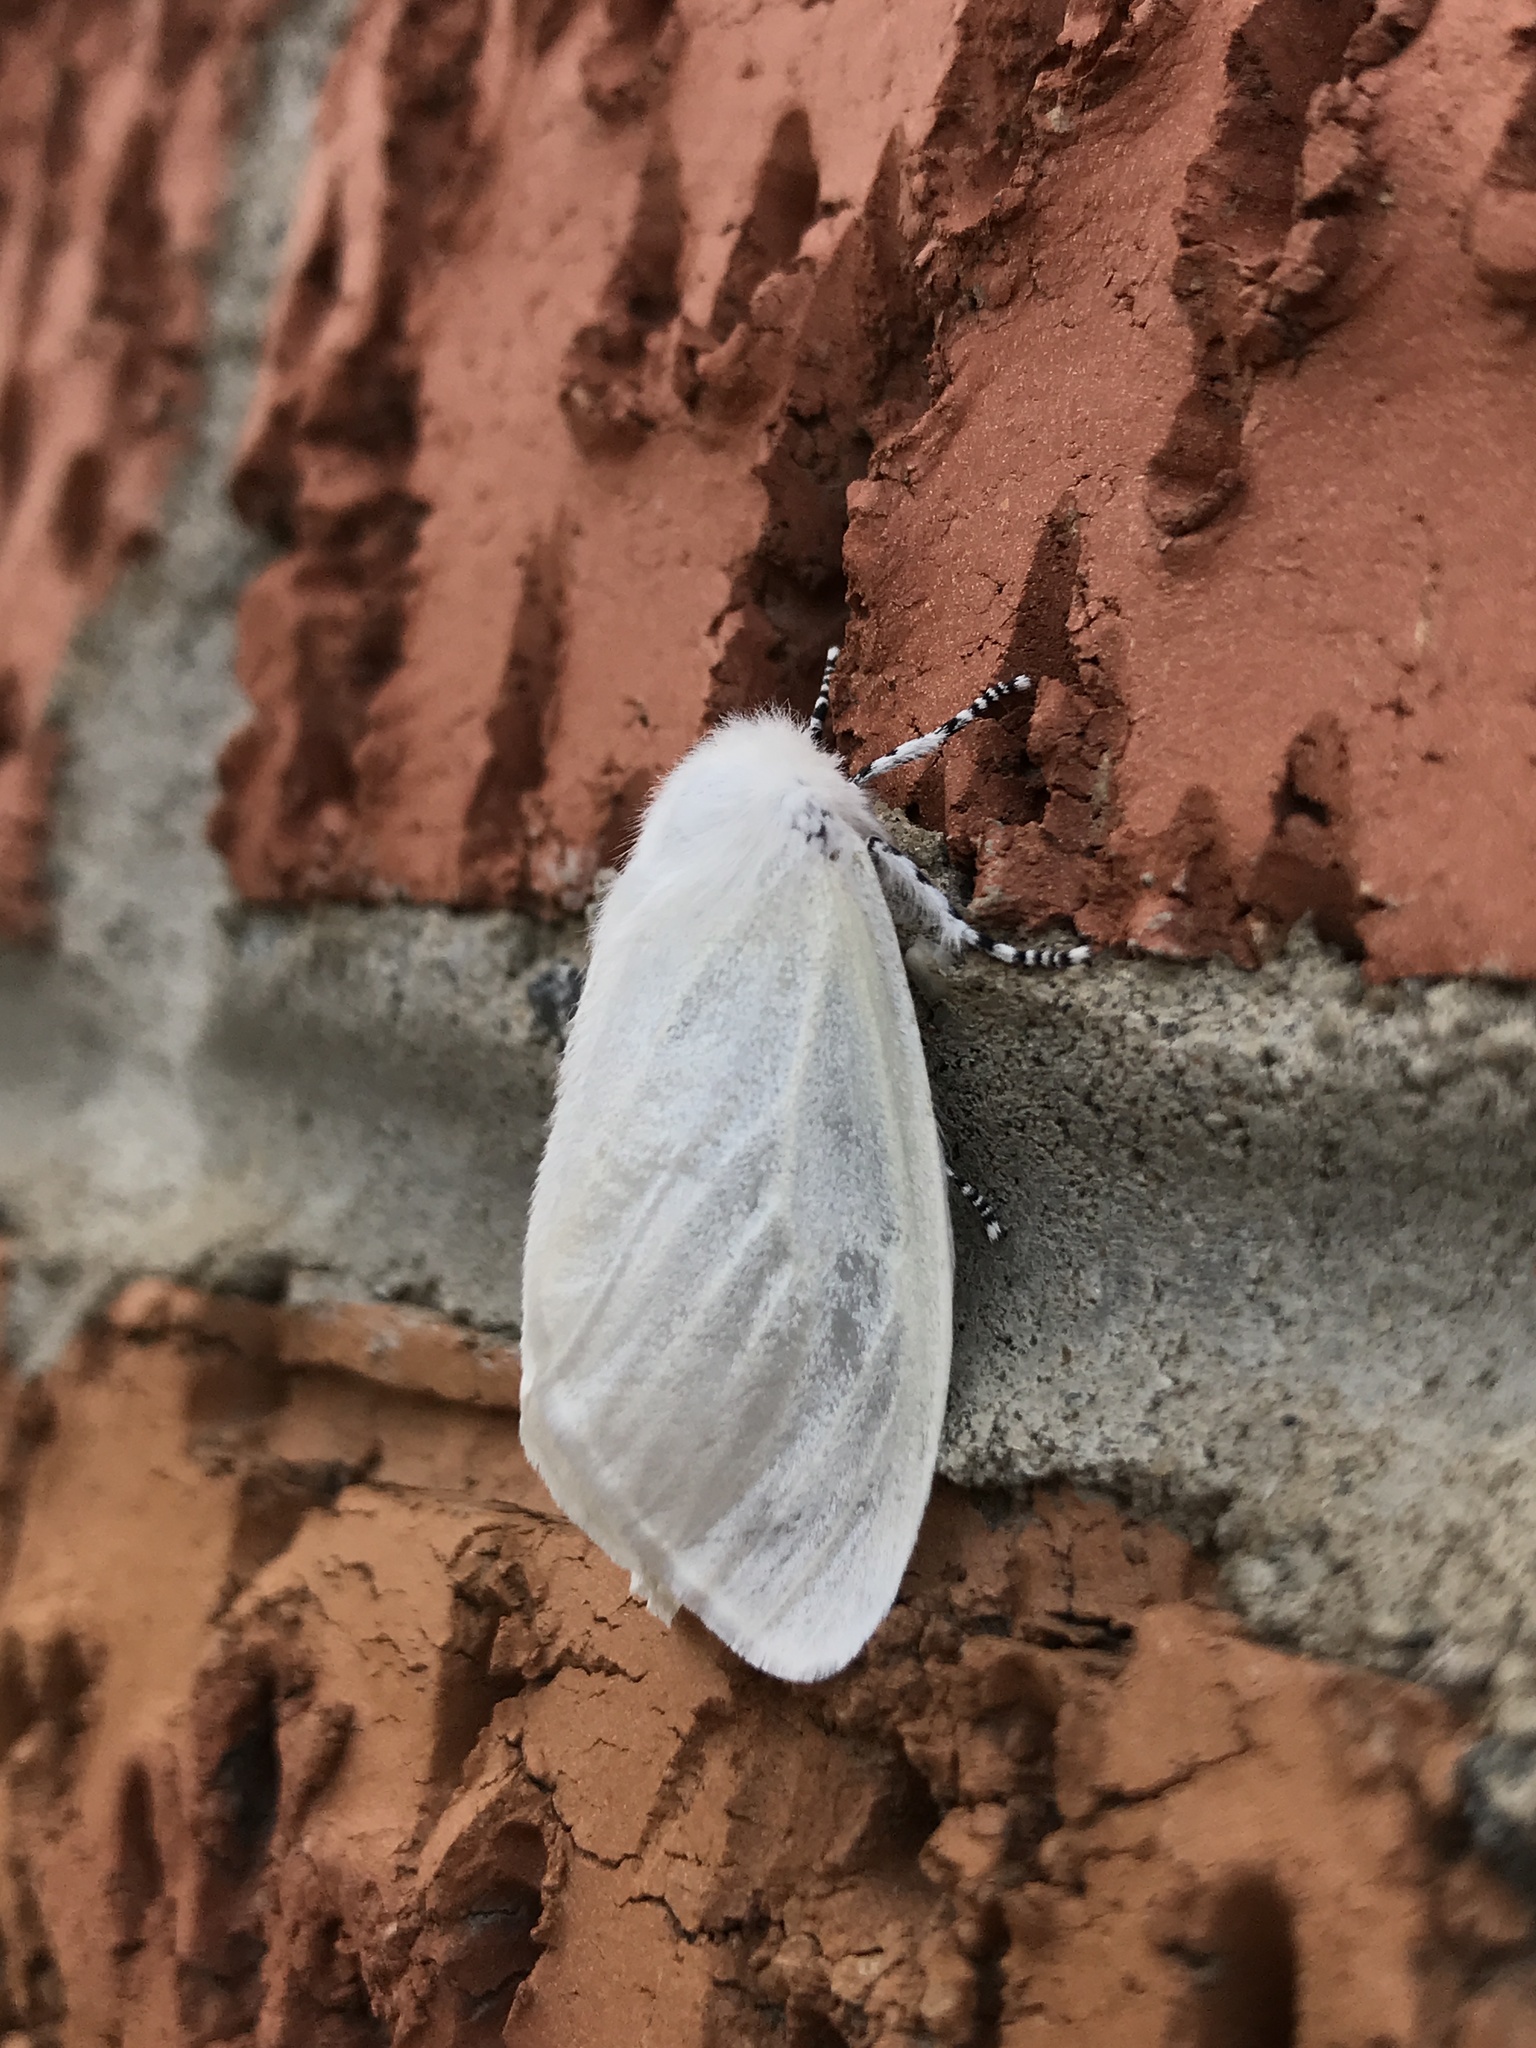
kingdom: Animalia
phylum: Arthropoda
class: Insecta
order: Lepidoptera
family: Erebidae
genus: Leucoma
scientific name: Leucoma salicis
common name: White satin moth
